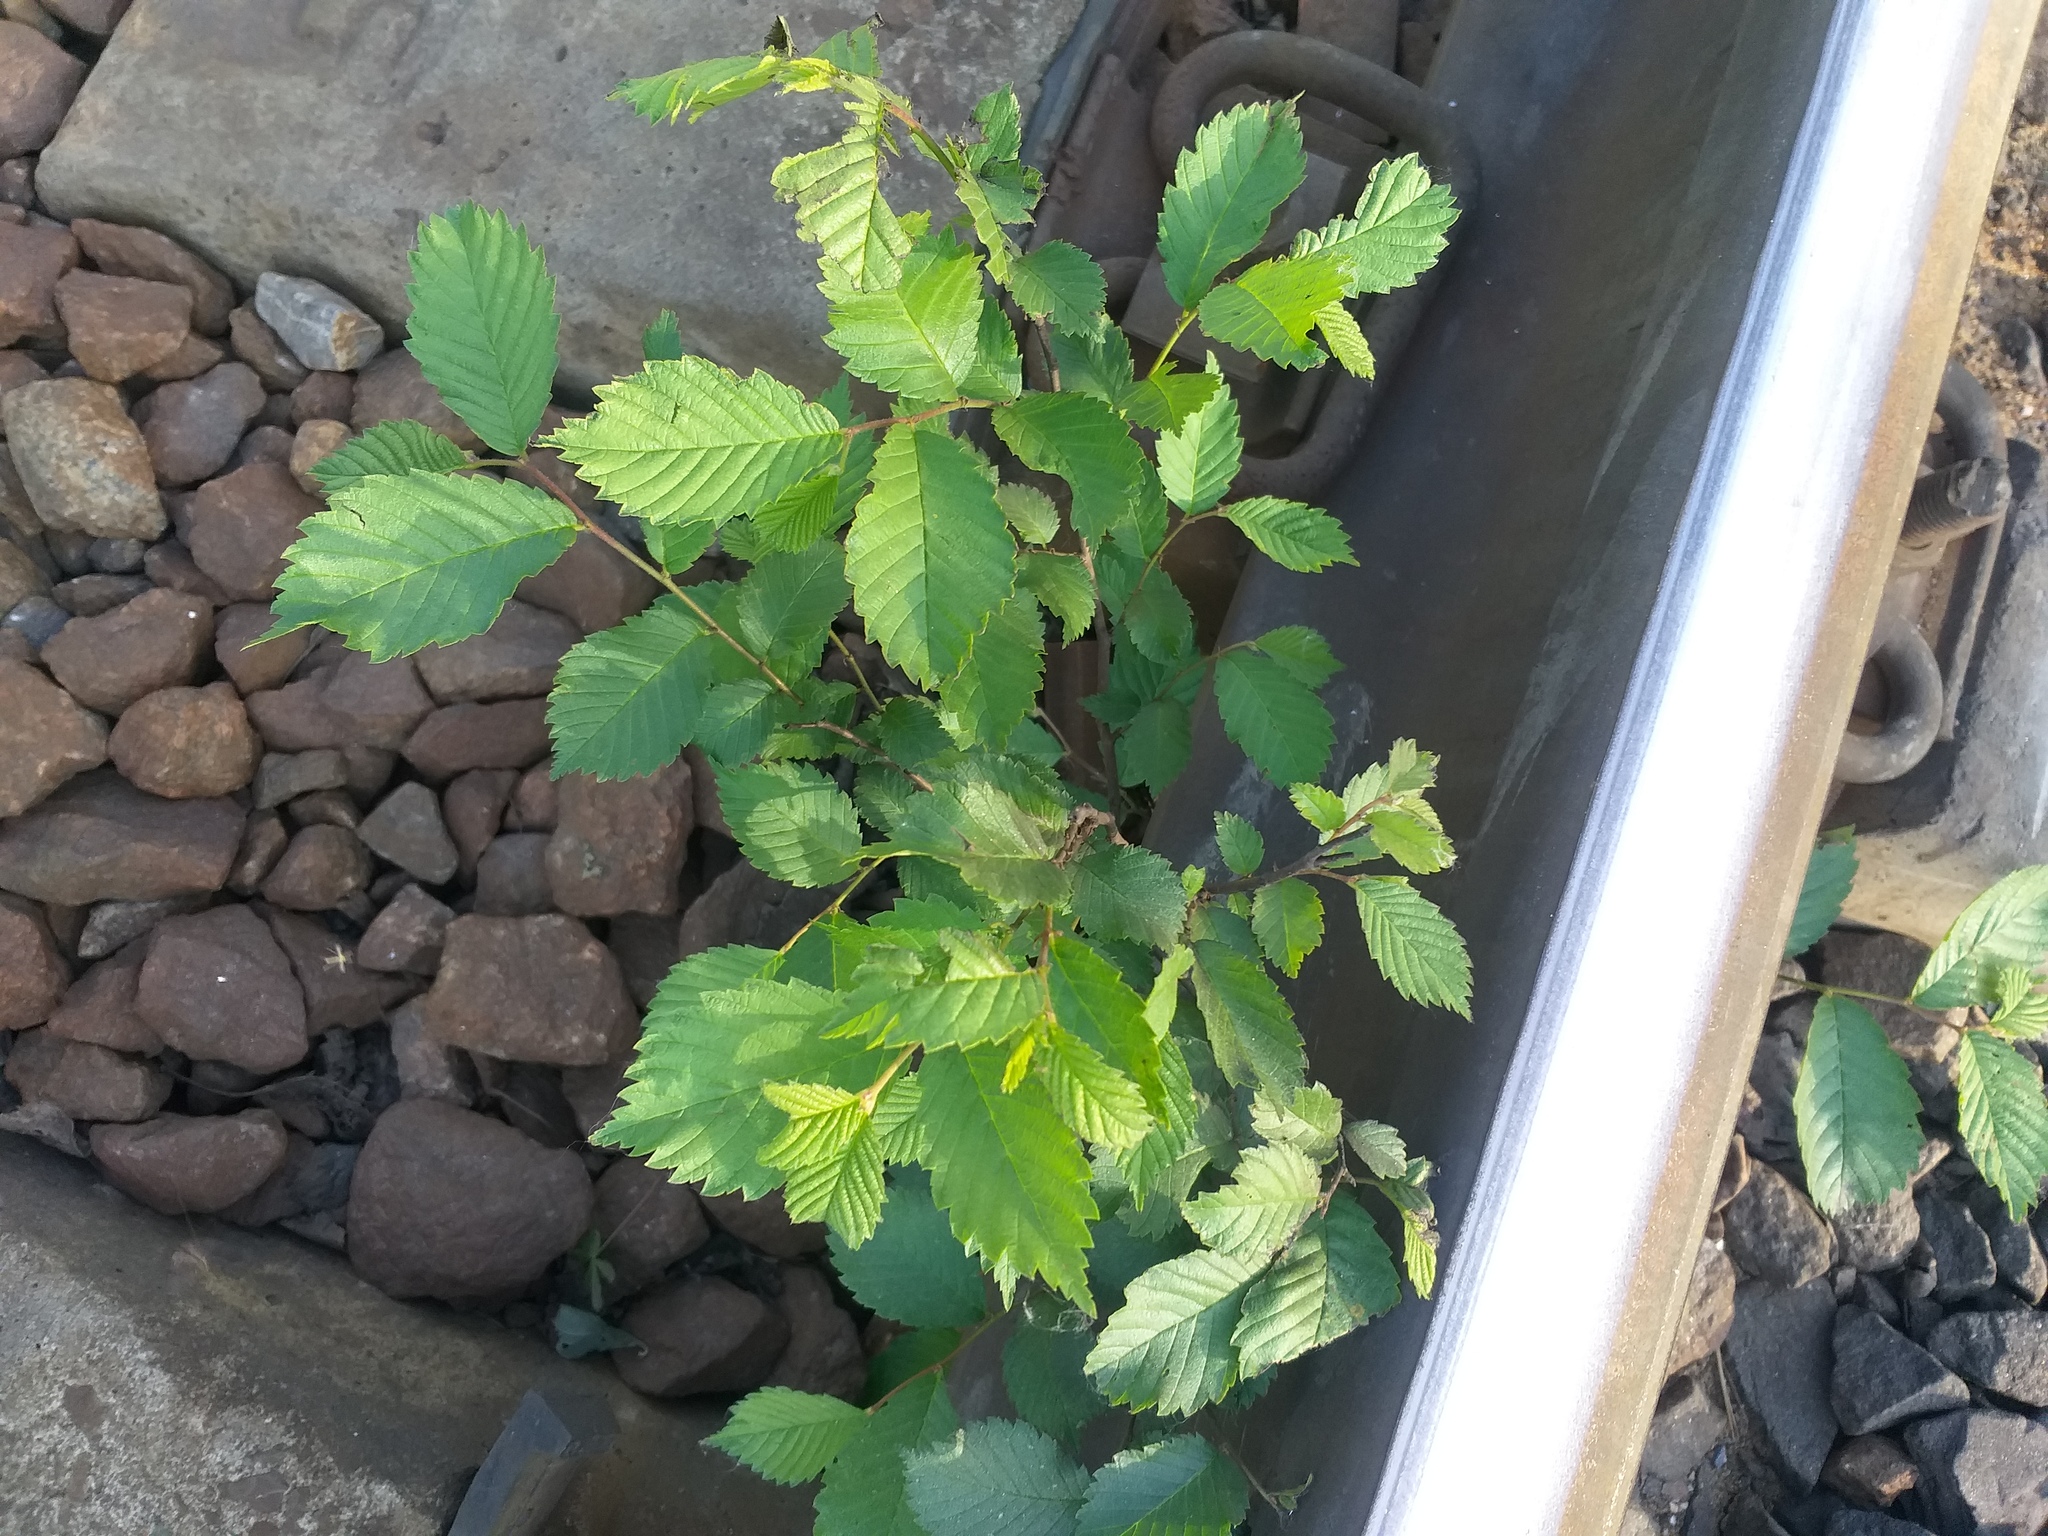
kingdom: Plantae
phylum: Tracheophyta
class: Magnoliopsida
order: Rosales
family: Ulmaceae
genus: Ulmus
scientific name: Ulmus laevis
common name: European white-elm
